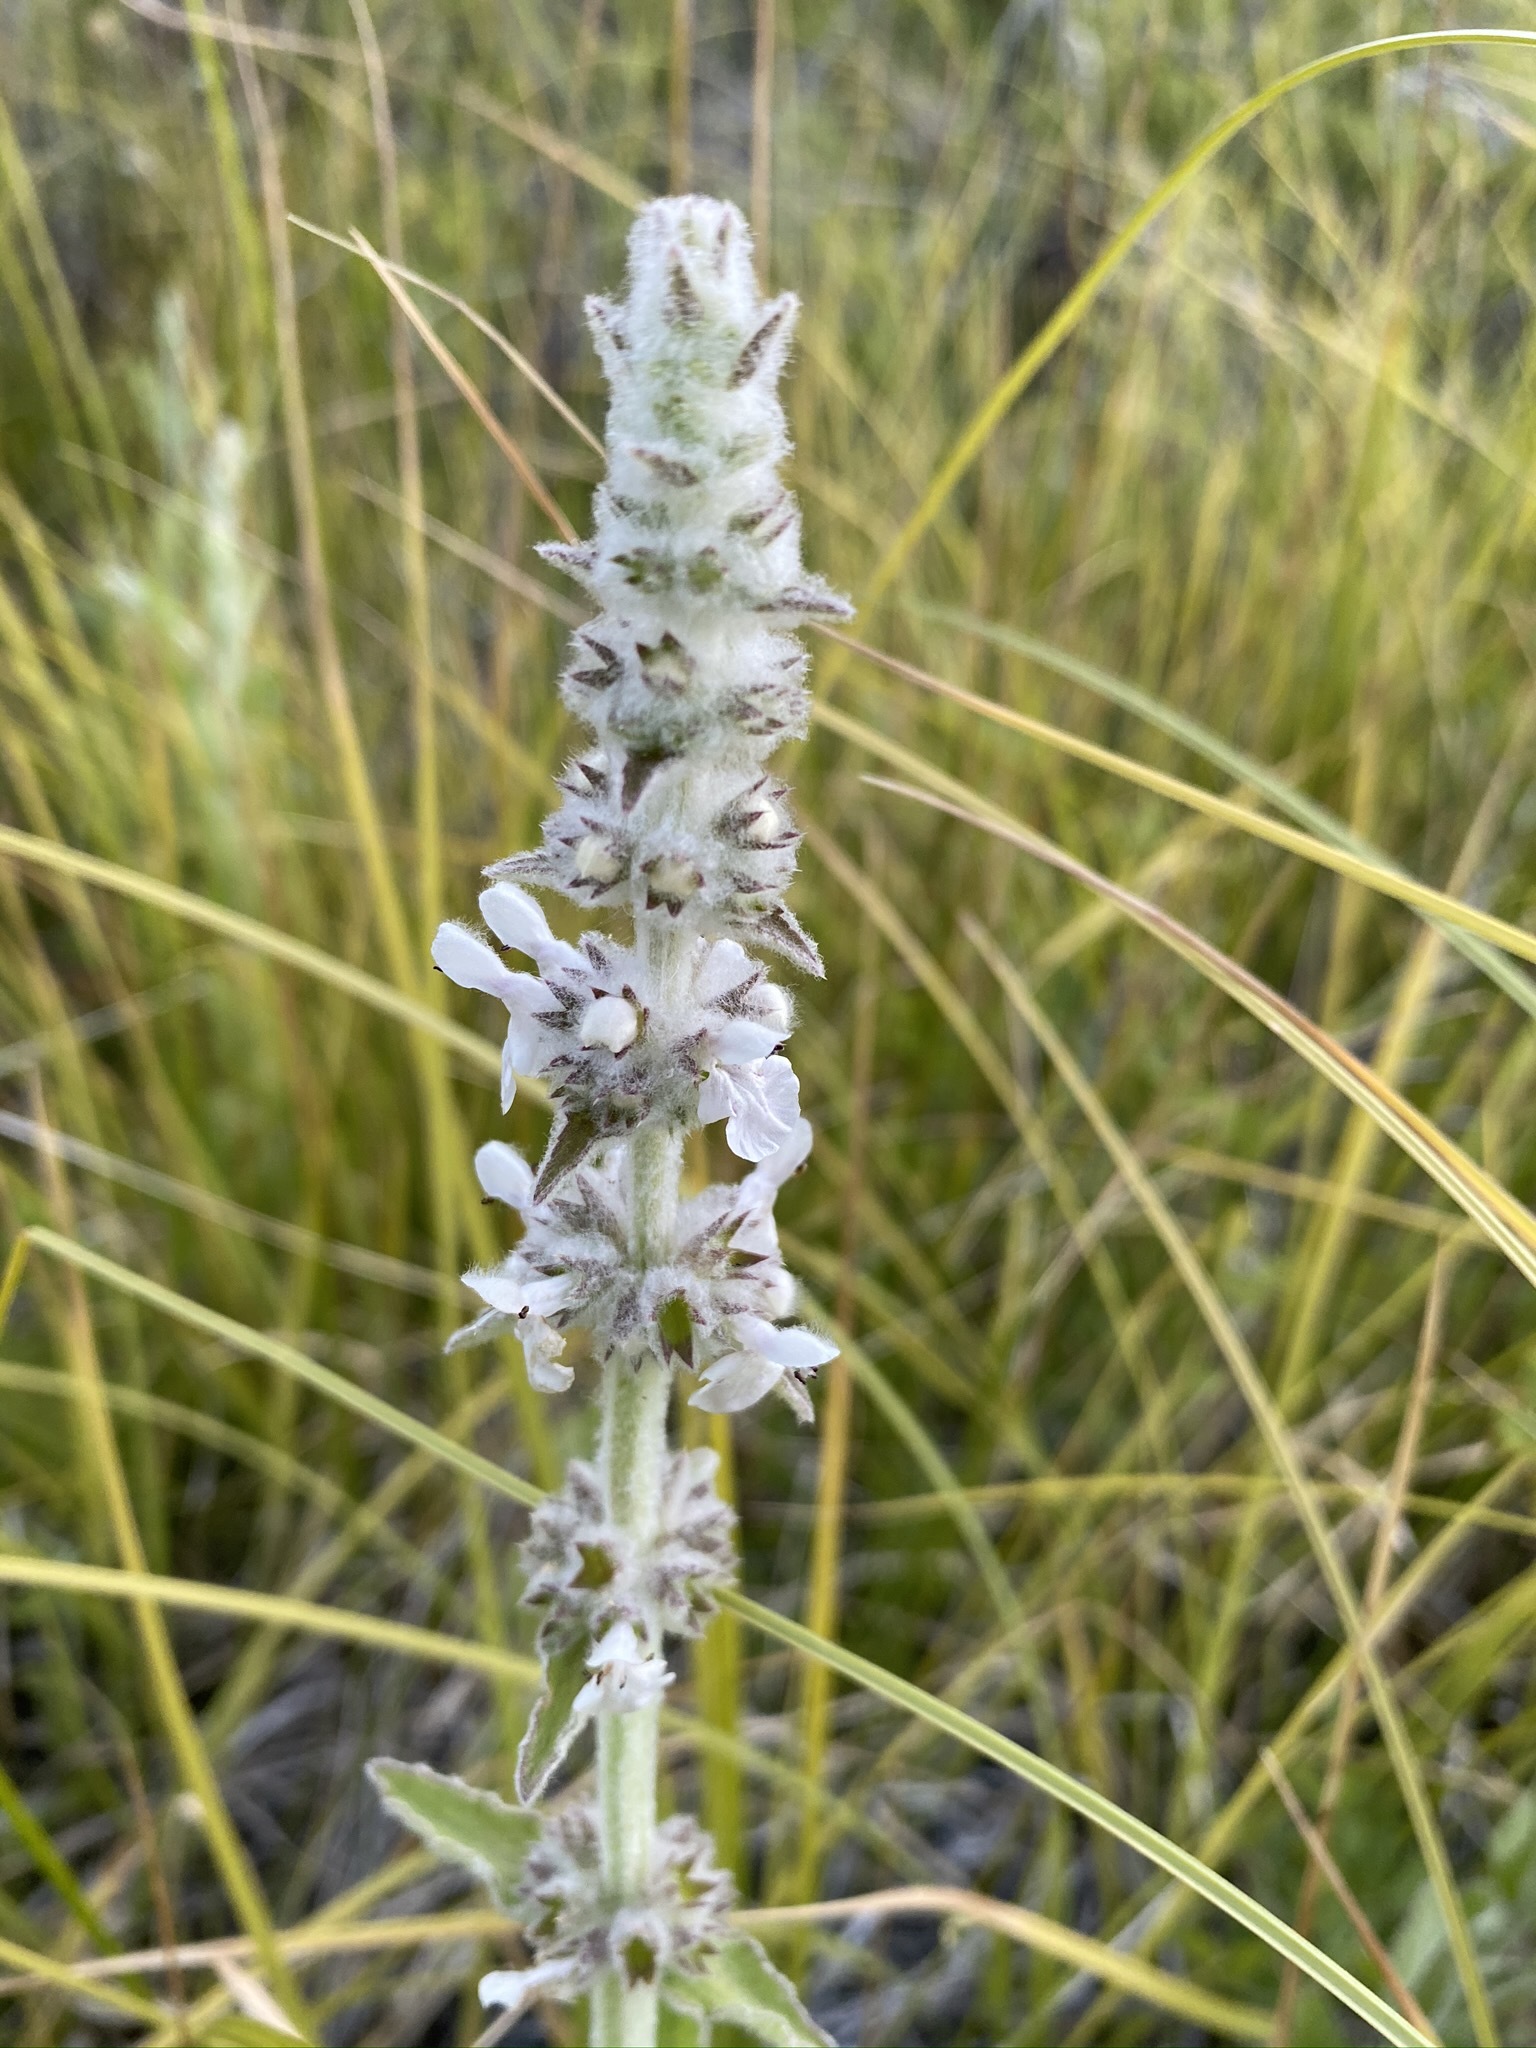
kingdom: Plantae
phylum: Tracheophyta
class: Magnoliopsida
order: Lamiales
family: Lamiaceae
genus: Stachys
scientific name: Stachys albens
